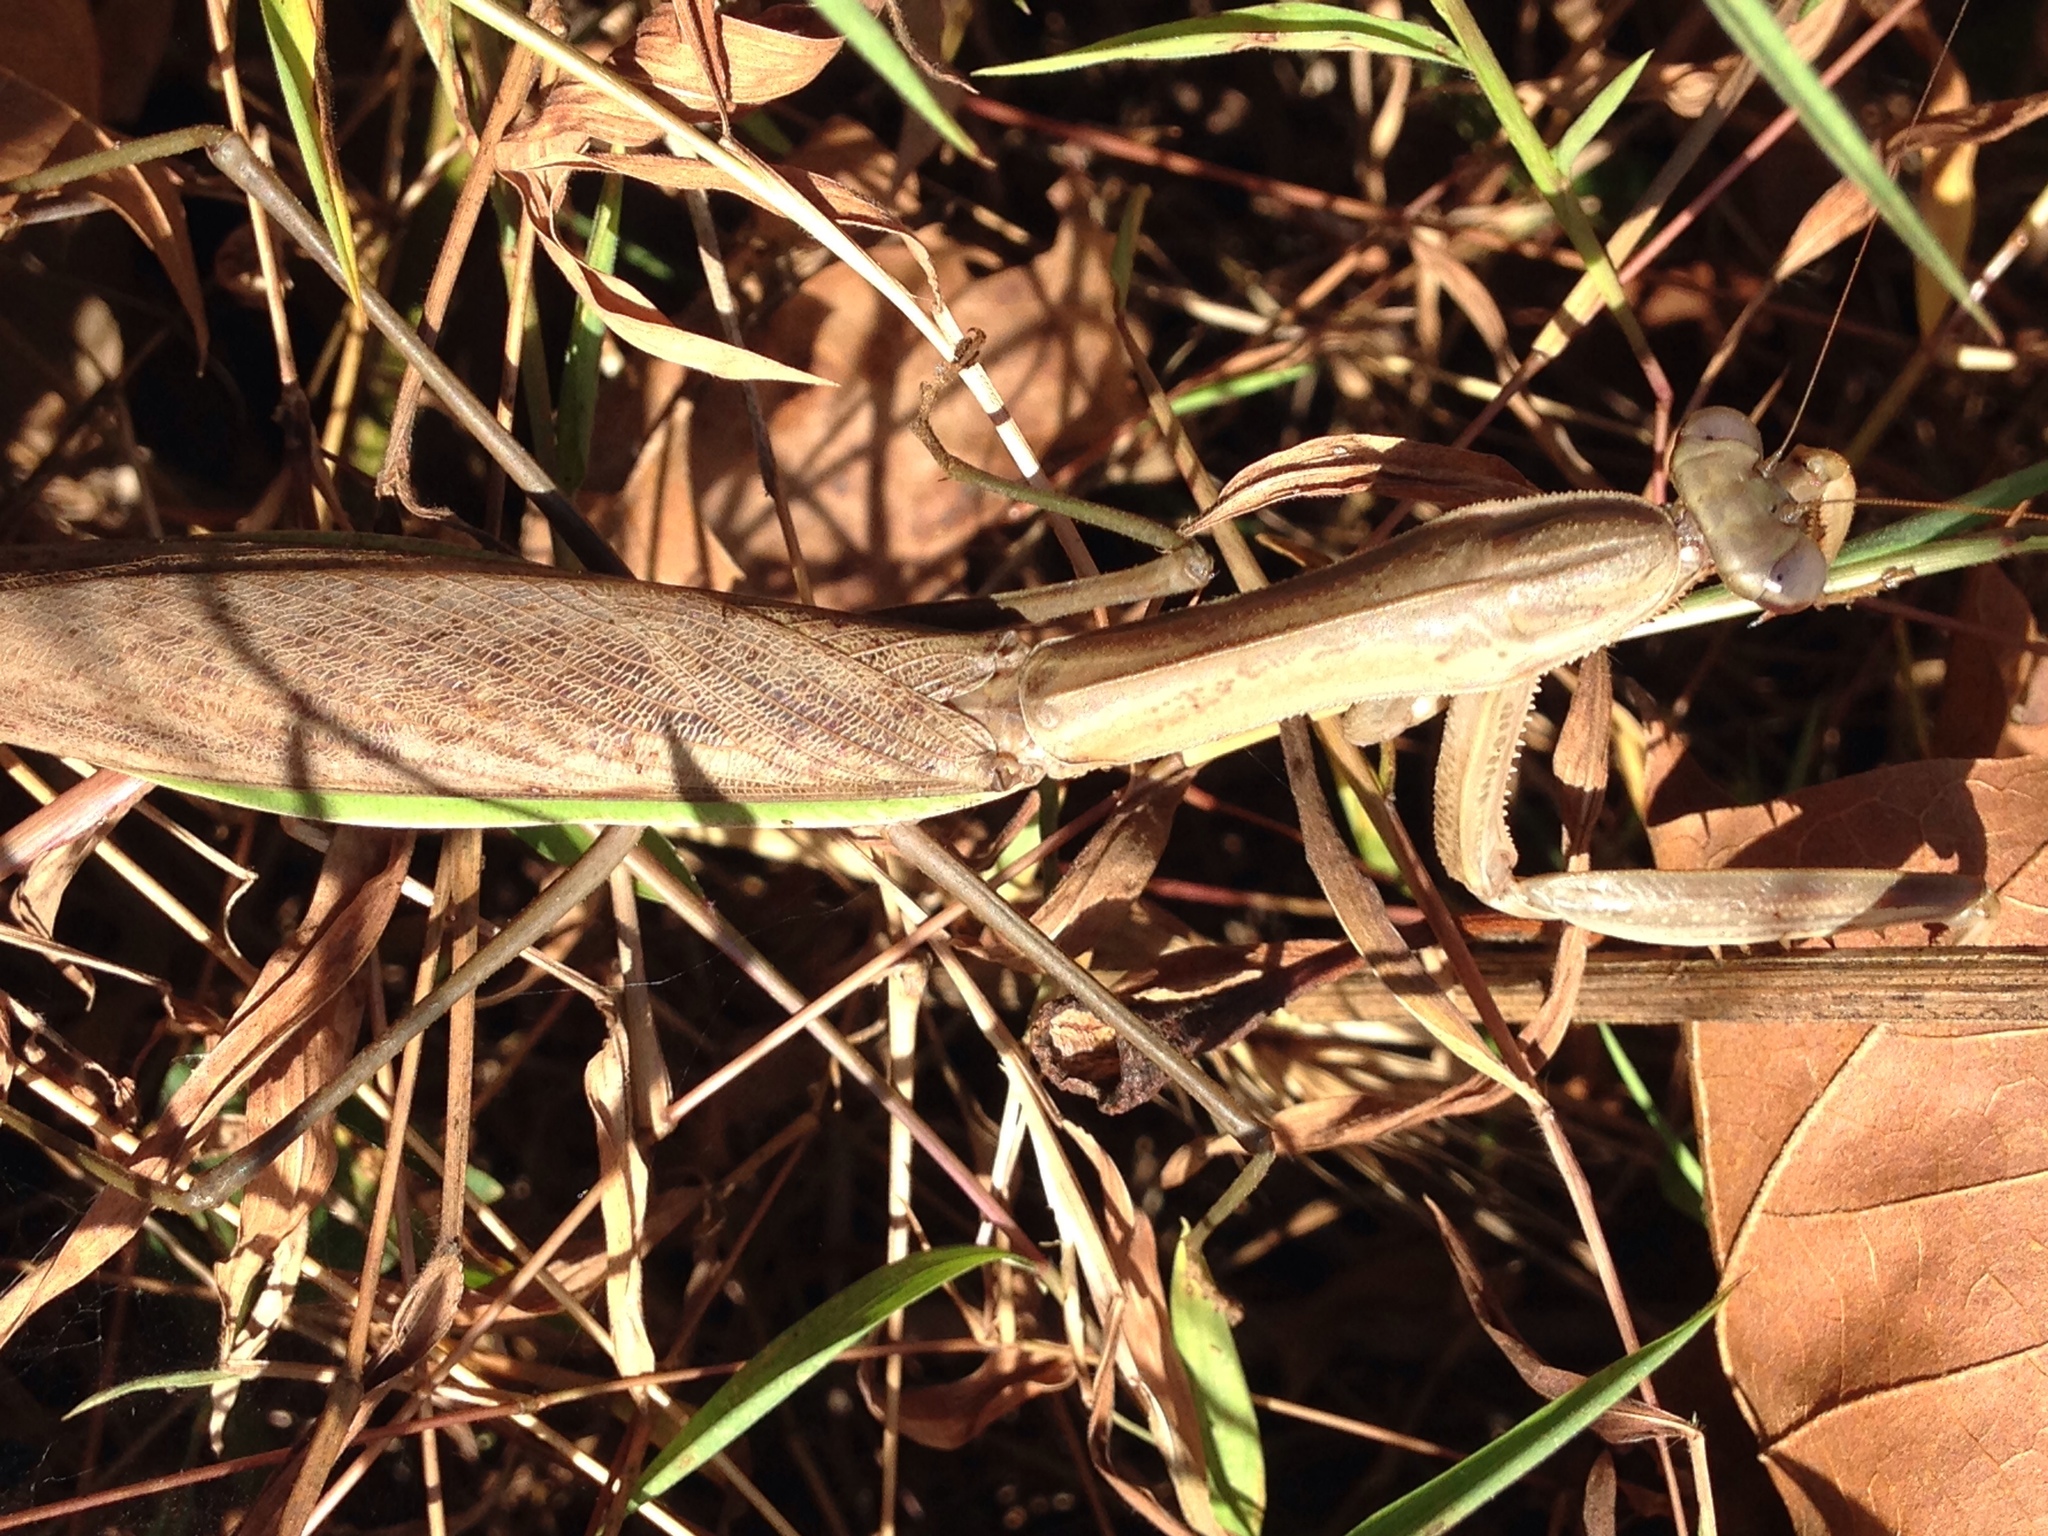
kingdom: Animalia
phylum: Arthropoda
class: Insecta
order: Mantodea
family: Mantidae
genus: Tenodera
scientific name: Tenodera sinensis
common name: Chinese mantis
